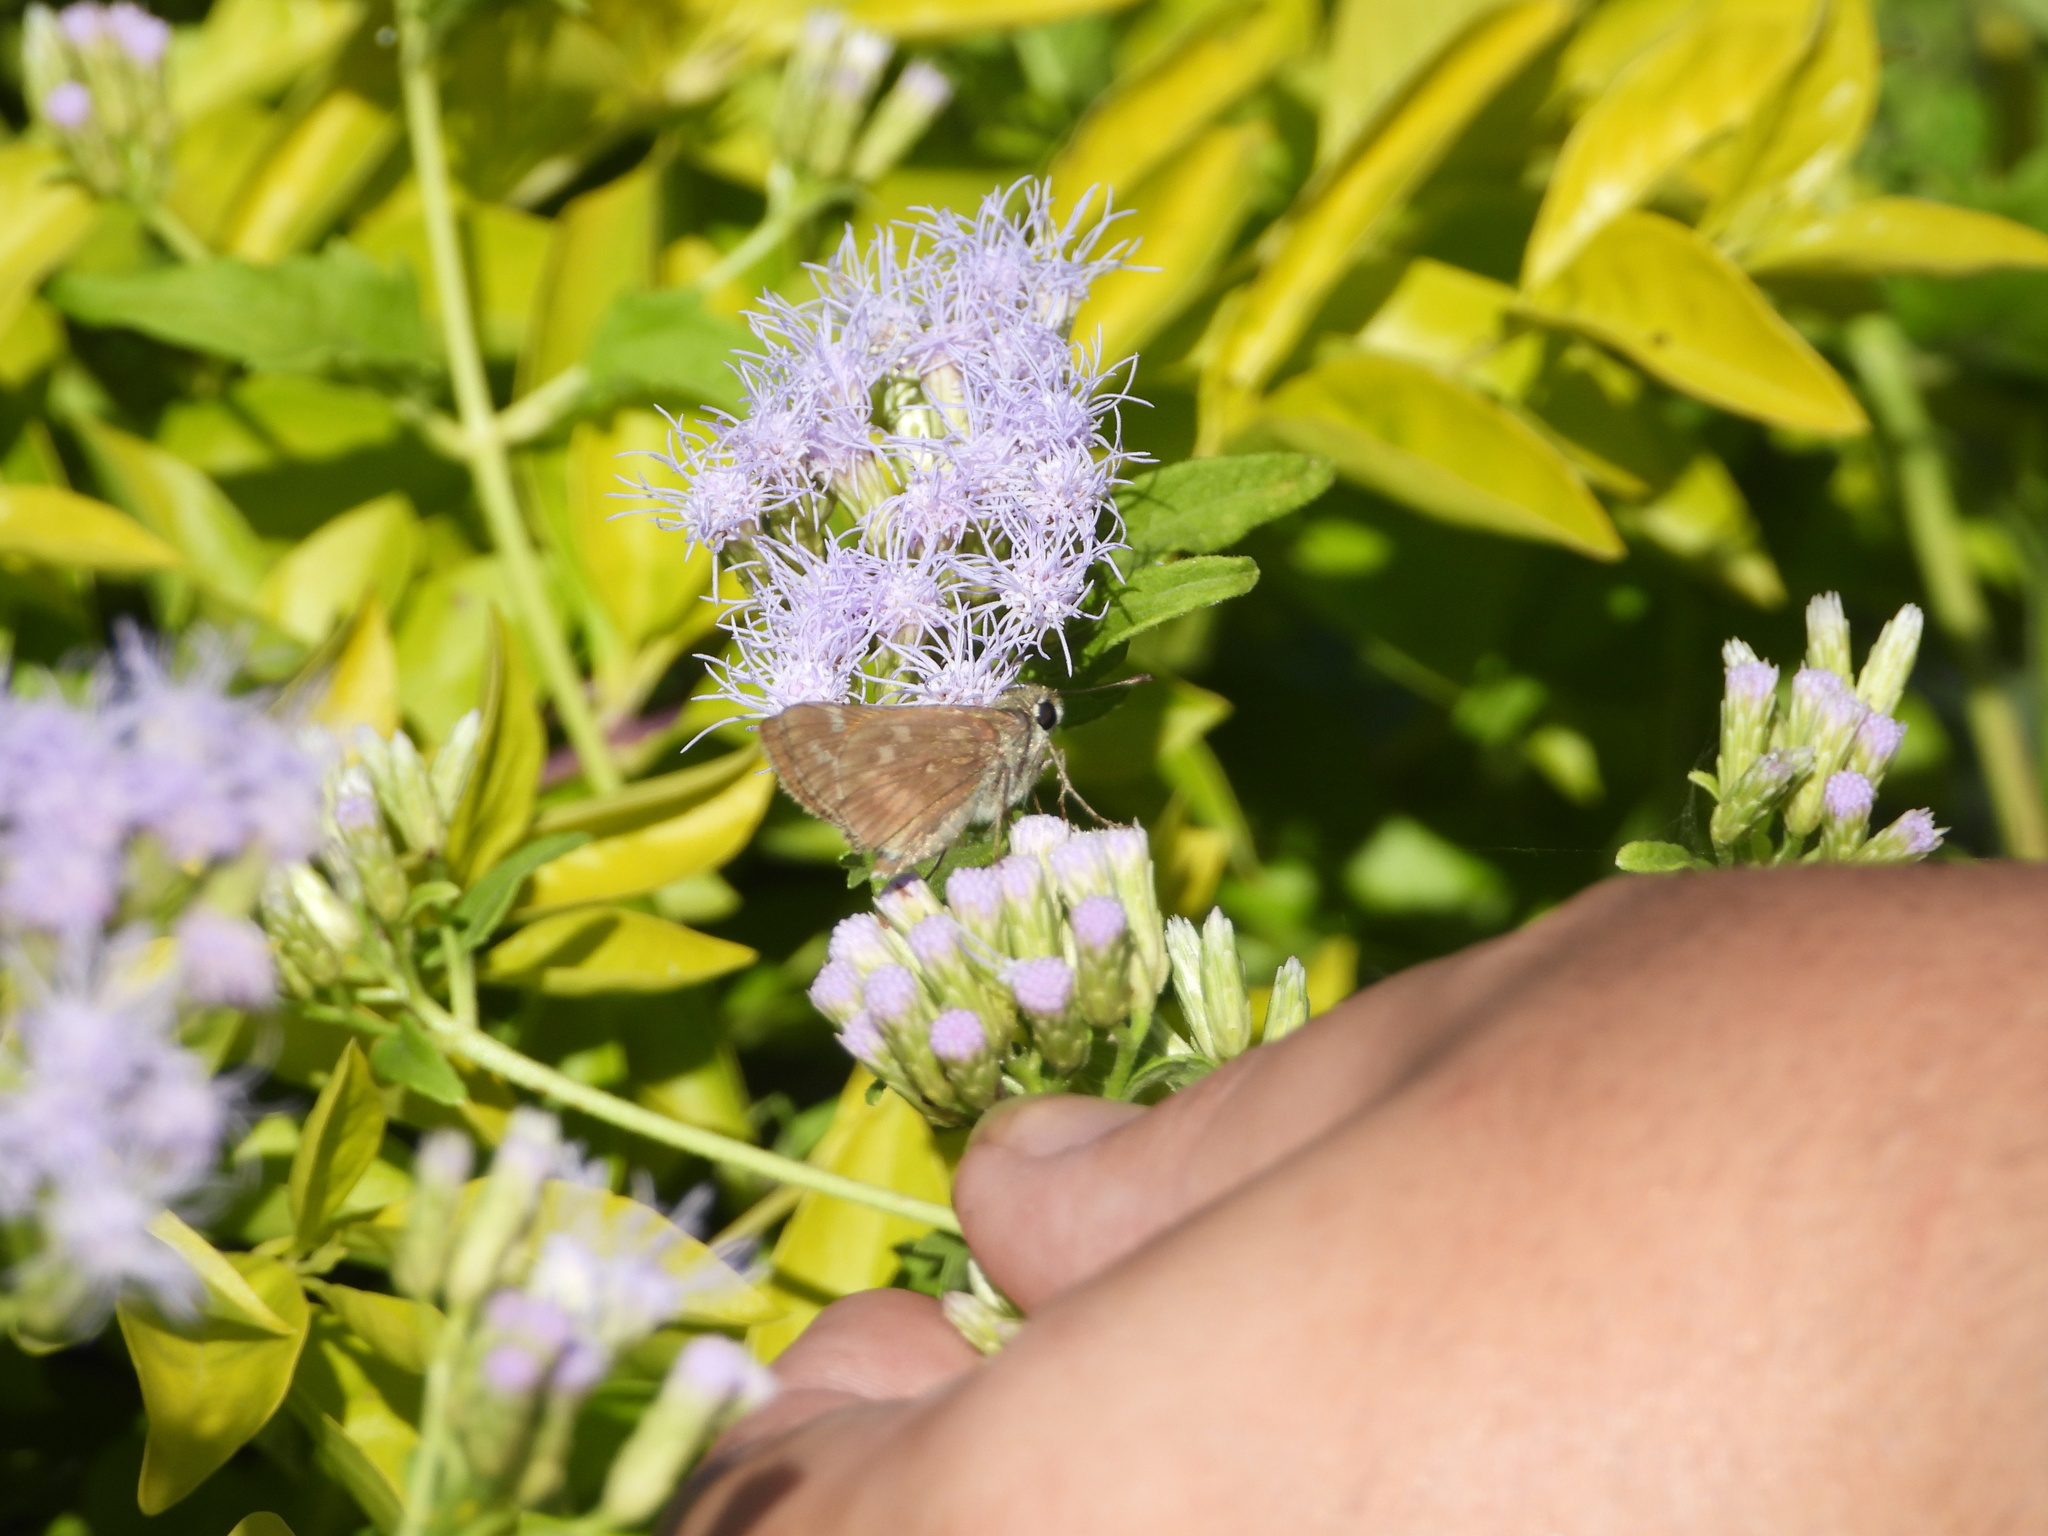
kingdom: Animalia
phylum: Arthropoda
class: Insecta
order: Lepidoptera
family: Hesperiidae
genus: Atalopedes
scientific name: Atalopedes
